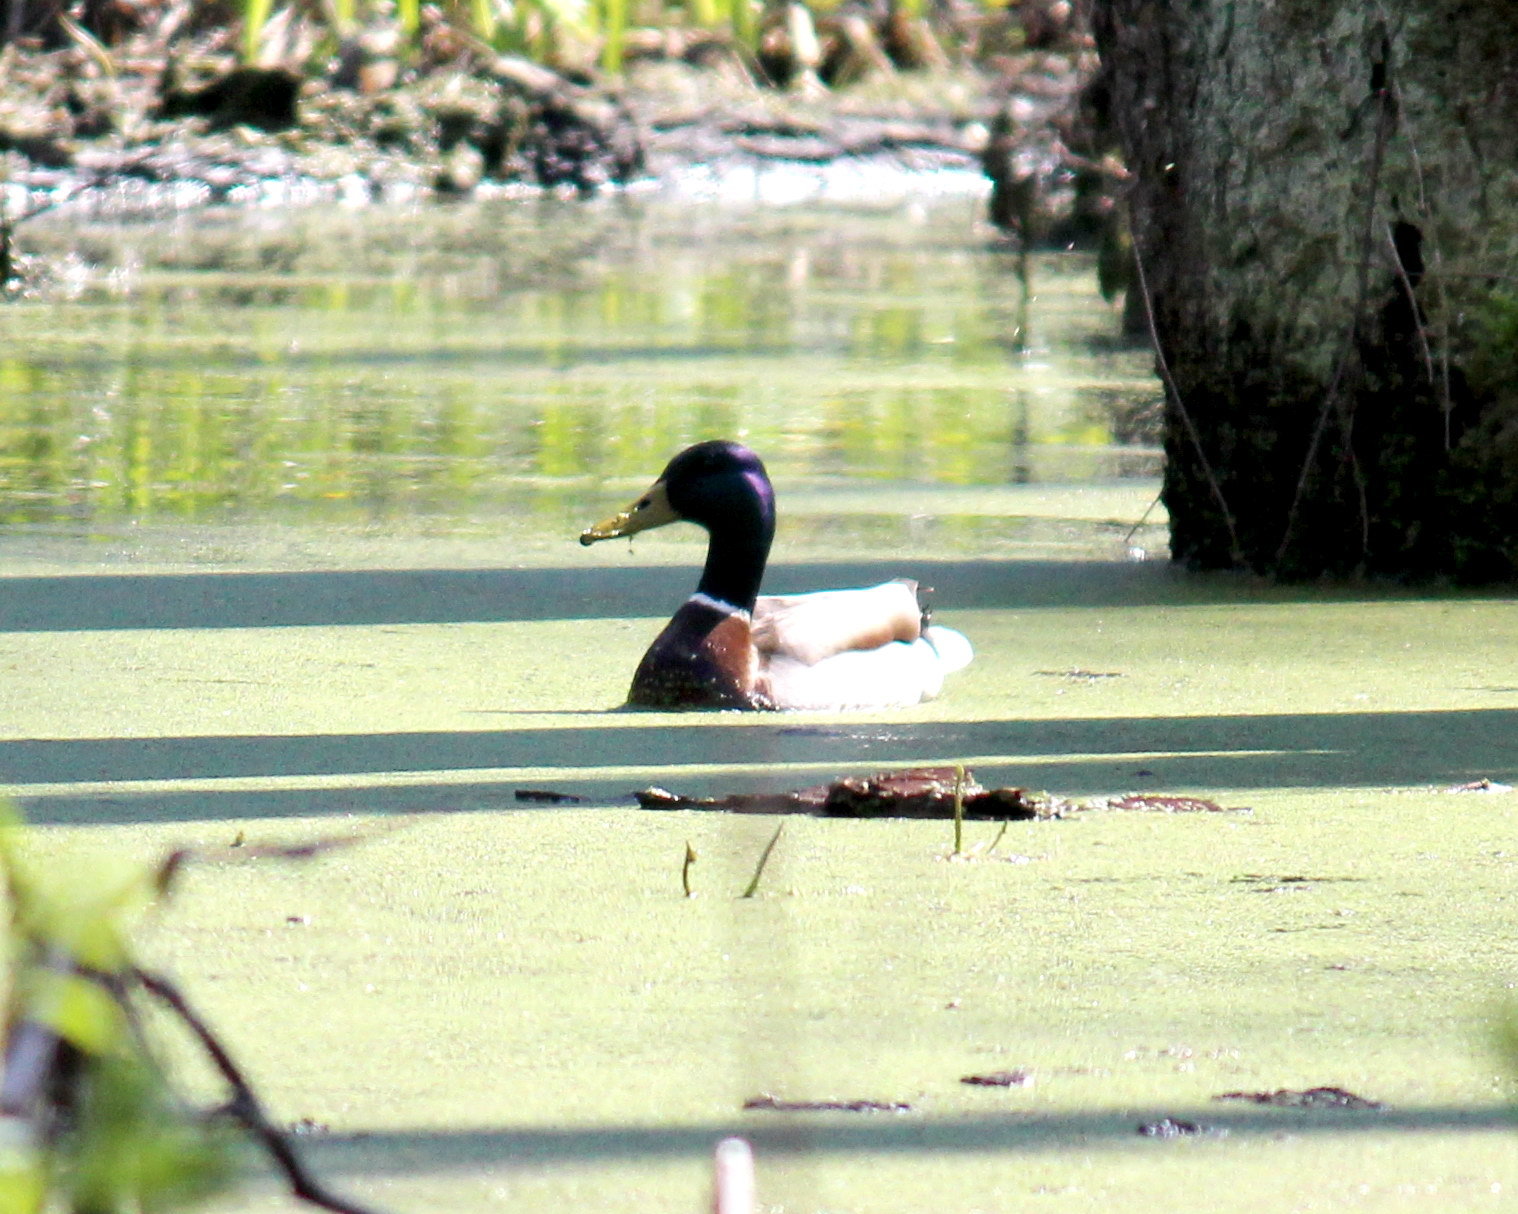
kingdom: Animalia
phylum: Chordata
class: Aves
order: Anseriformes
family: Anatidae
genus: Anas
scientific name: Anas platyrhynchos
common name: Mallard
